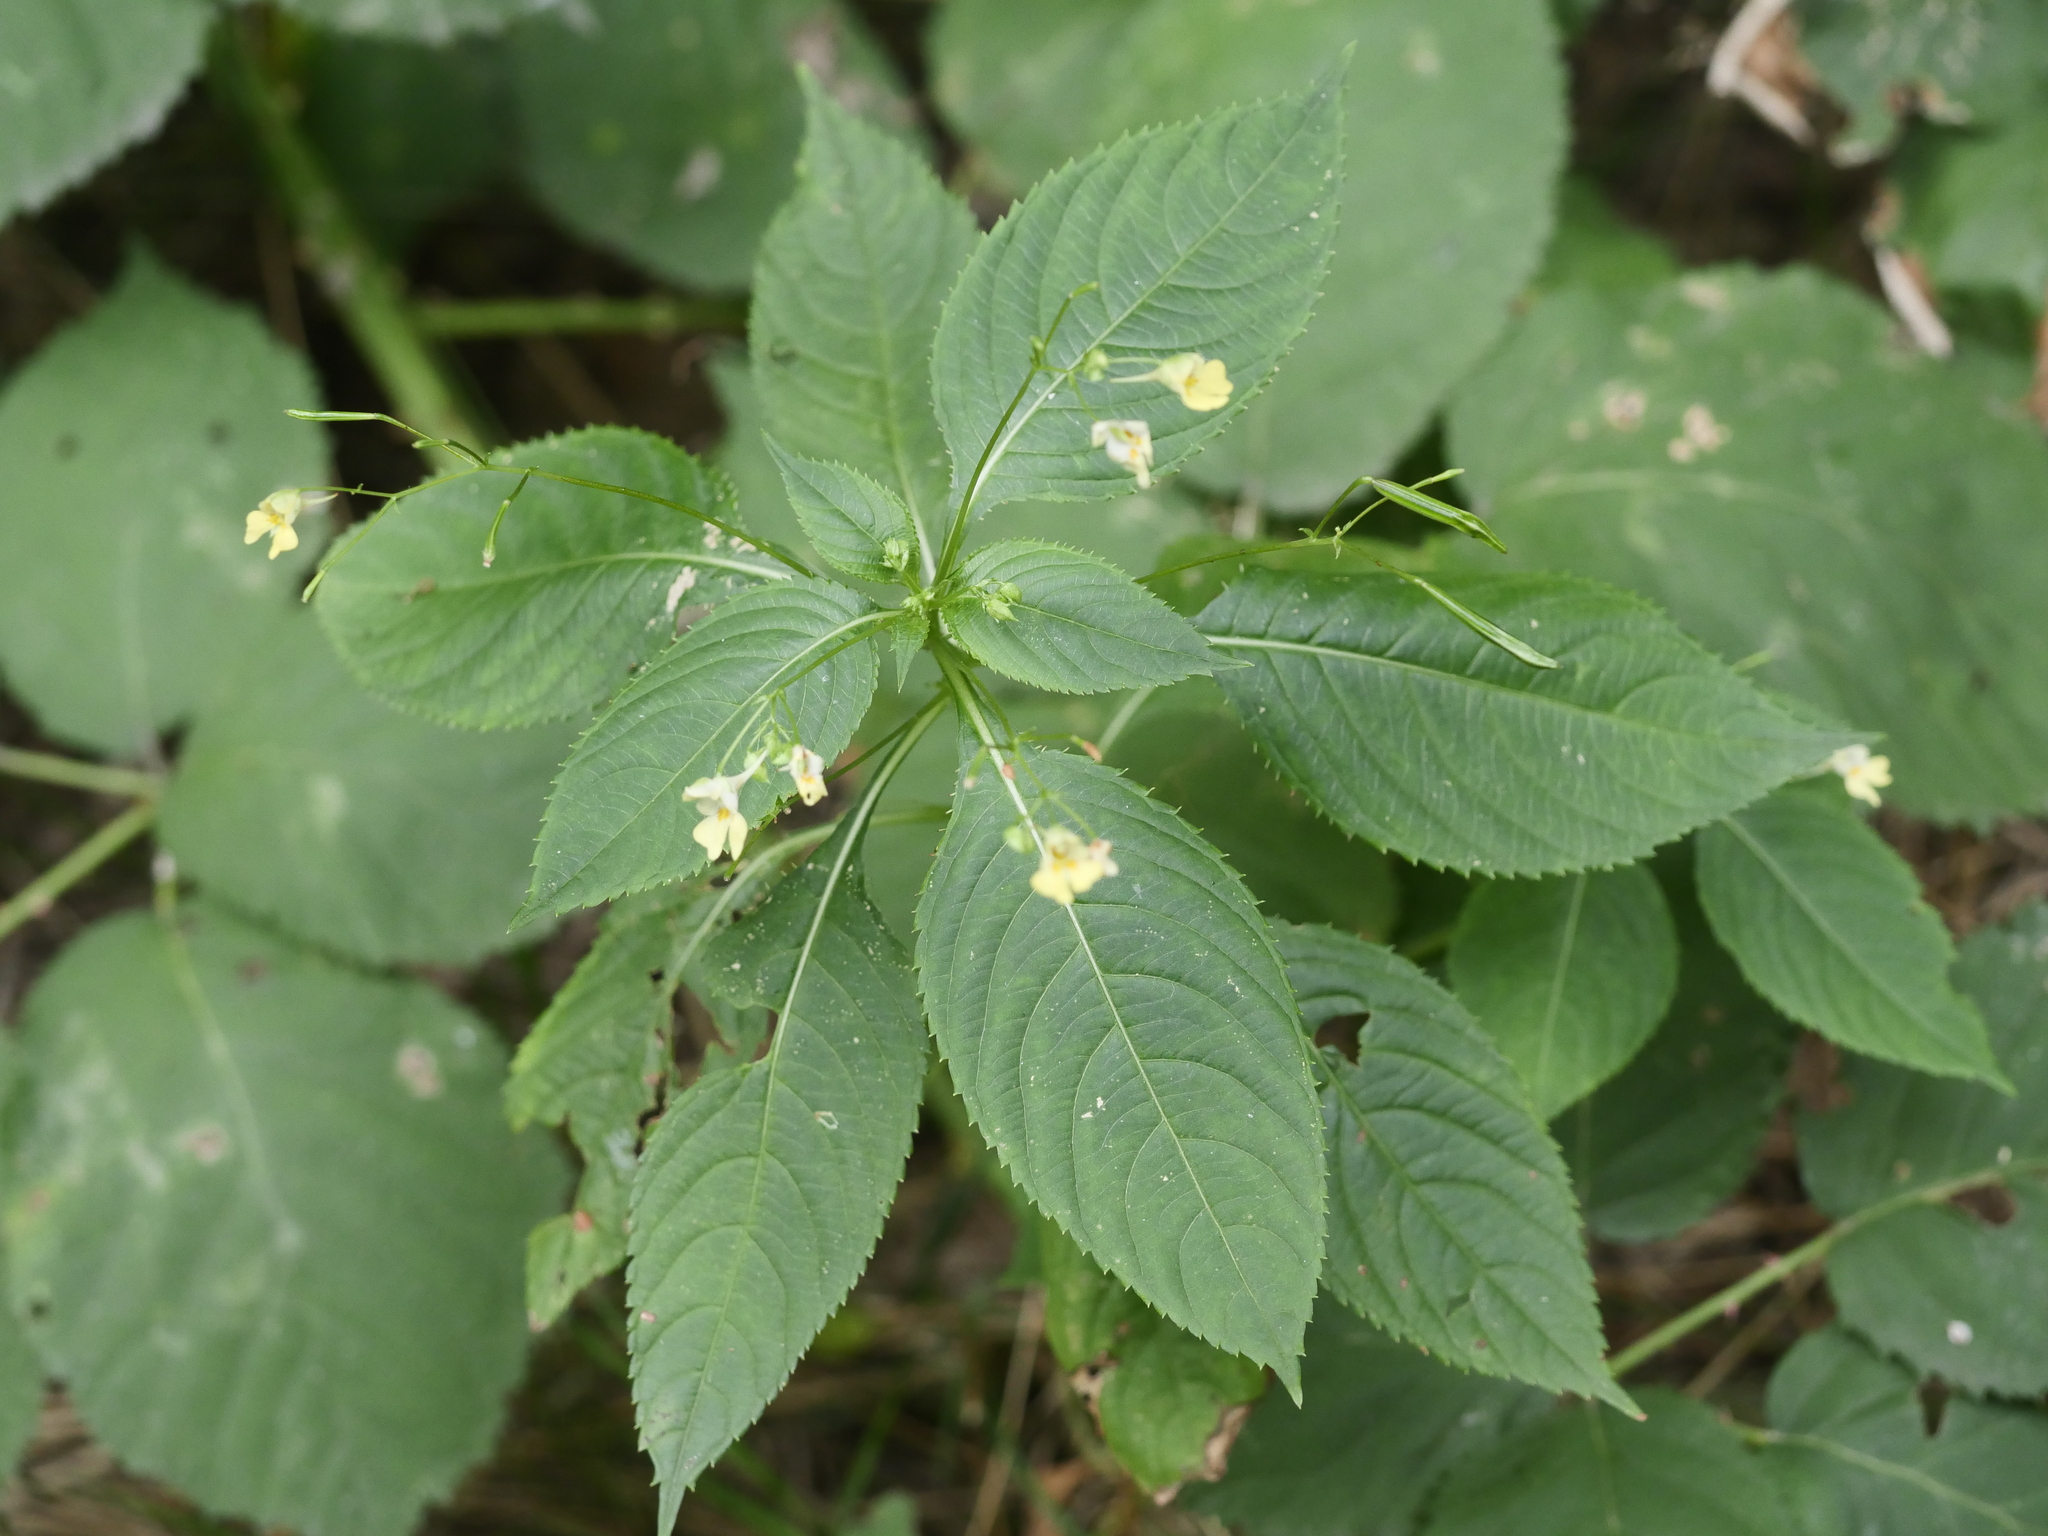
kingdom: Plantae
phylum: Tracheophyta
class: Magnoliopsida
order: Ericales
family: Balsaminaceae
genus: Impatiens
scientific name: Impatiens parviflora
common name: Small balsam
